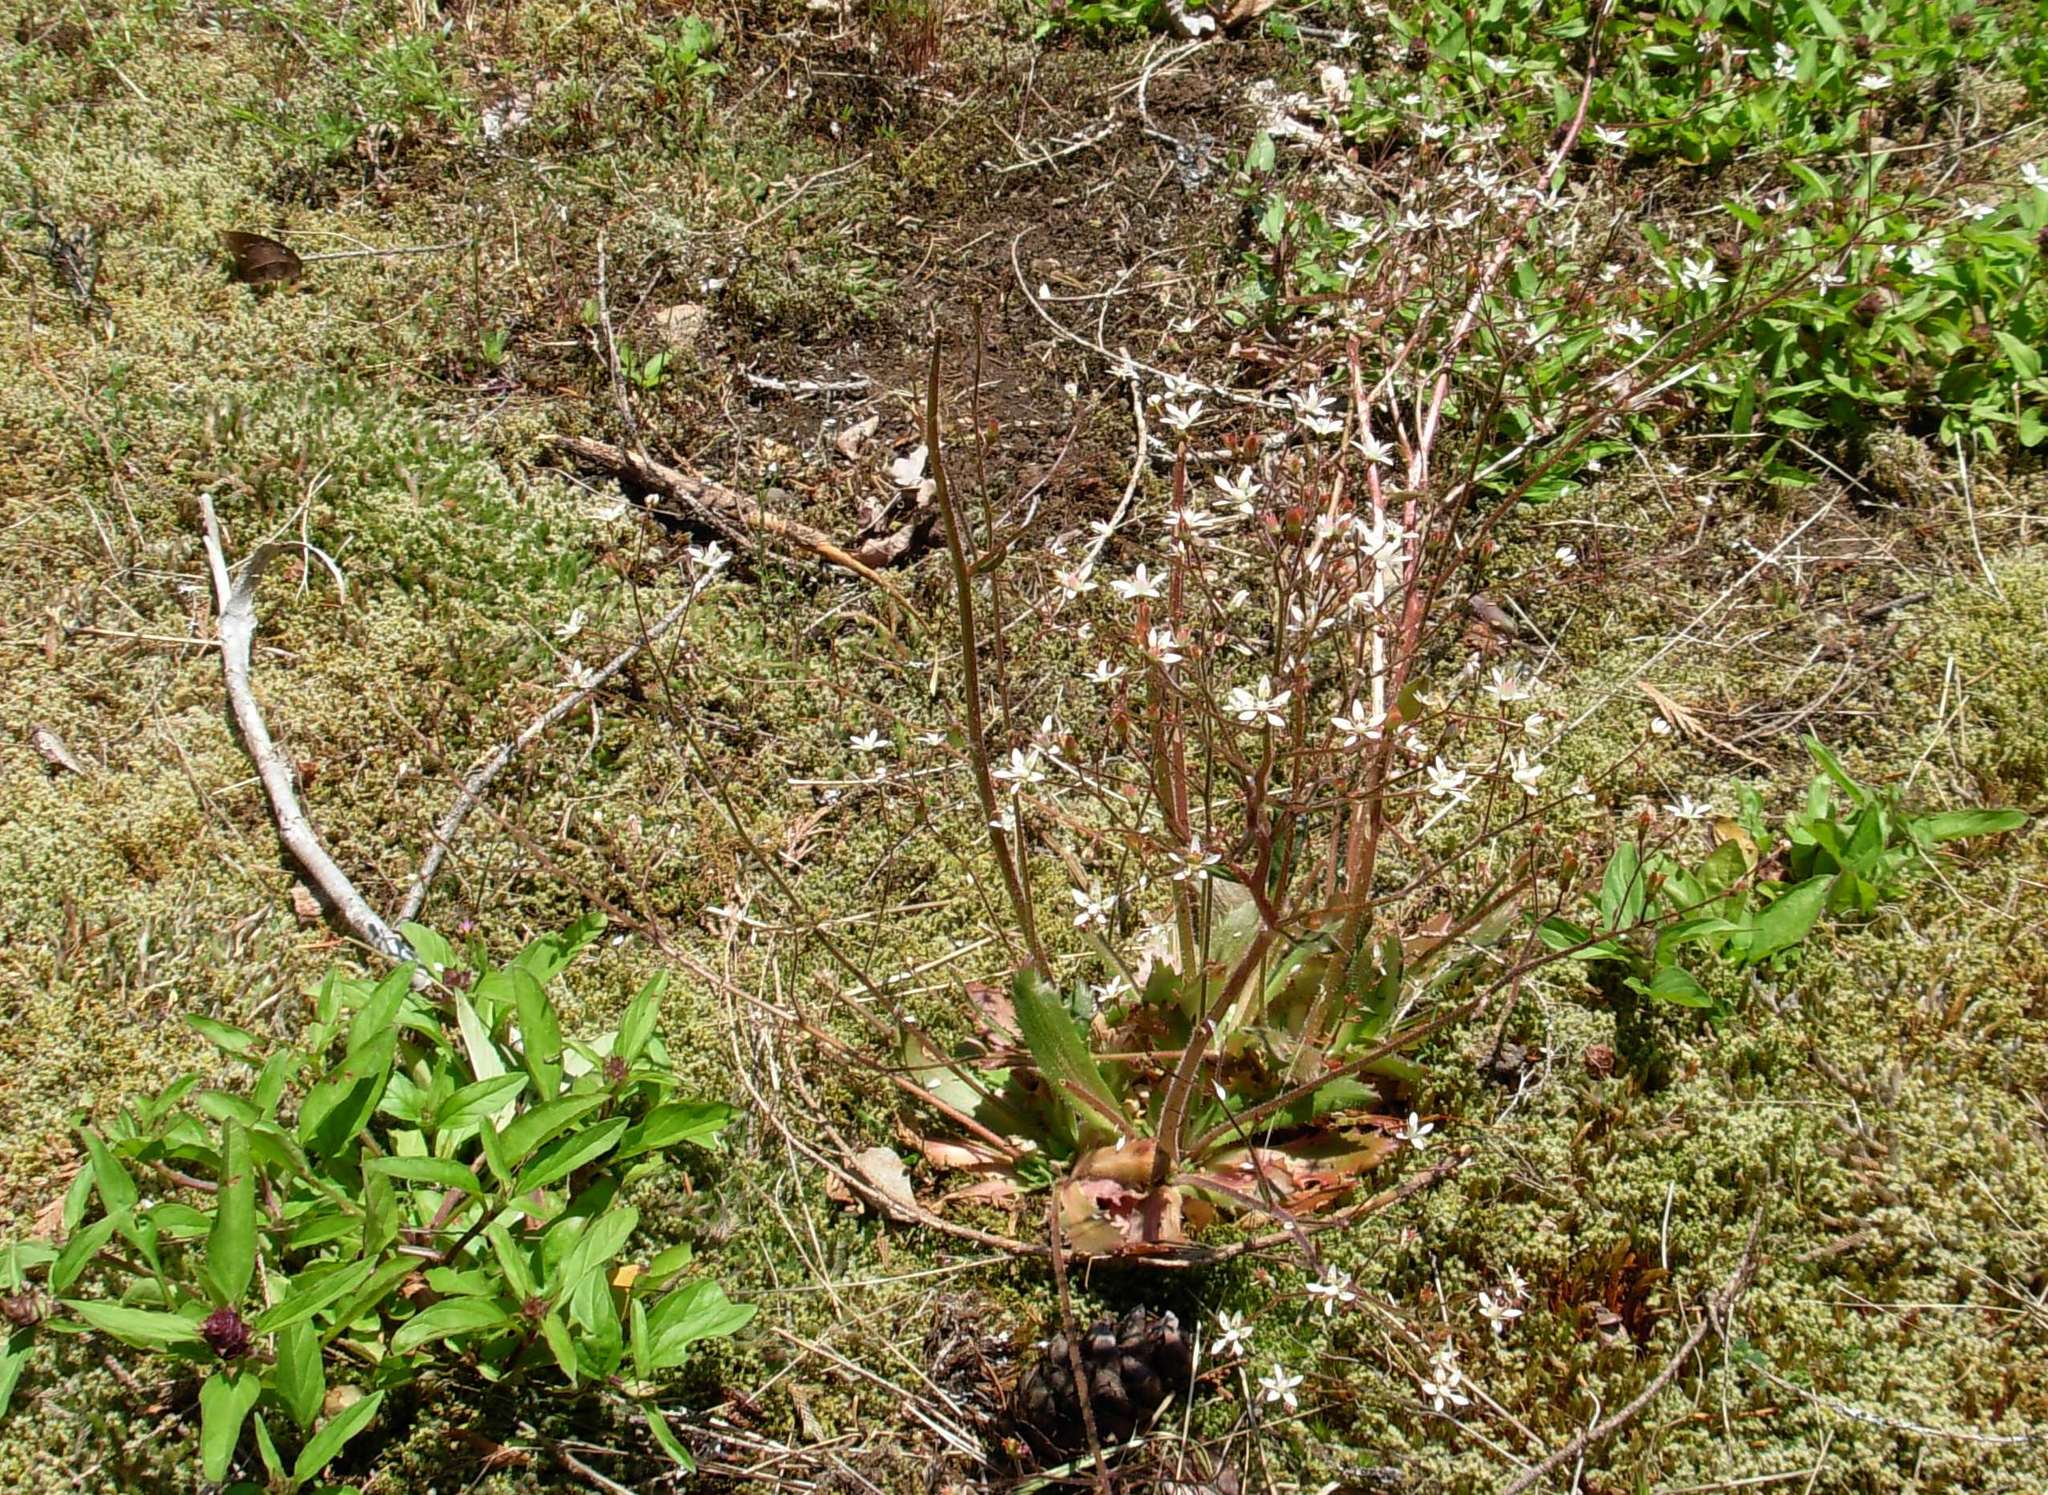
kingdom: Plantae
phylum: Tracheophyta
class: Magnoliopsida
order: Saxifragales
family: Saxifragaceae
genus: Micranthes
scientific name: Micranthes ferruginea
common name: Rusty saxifrage
